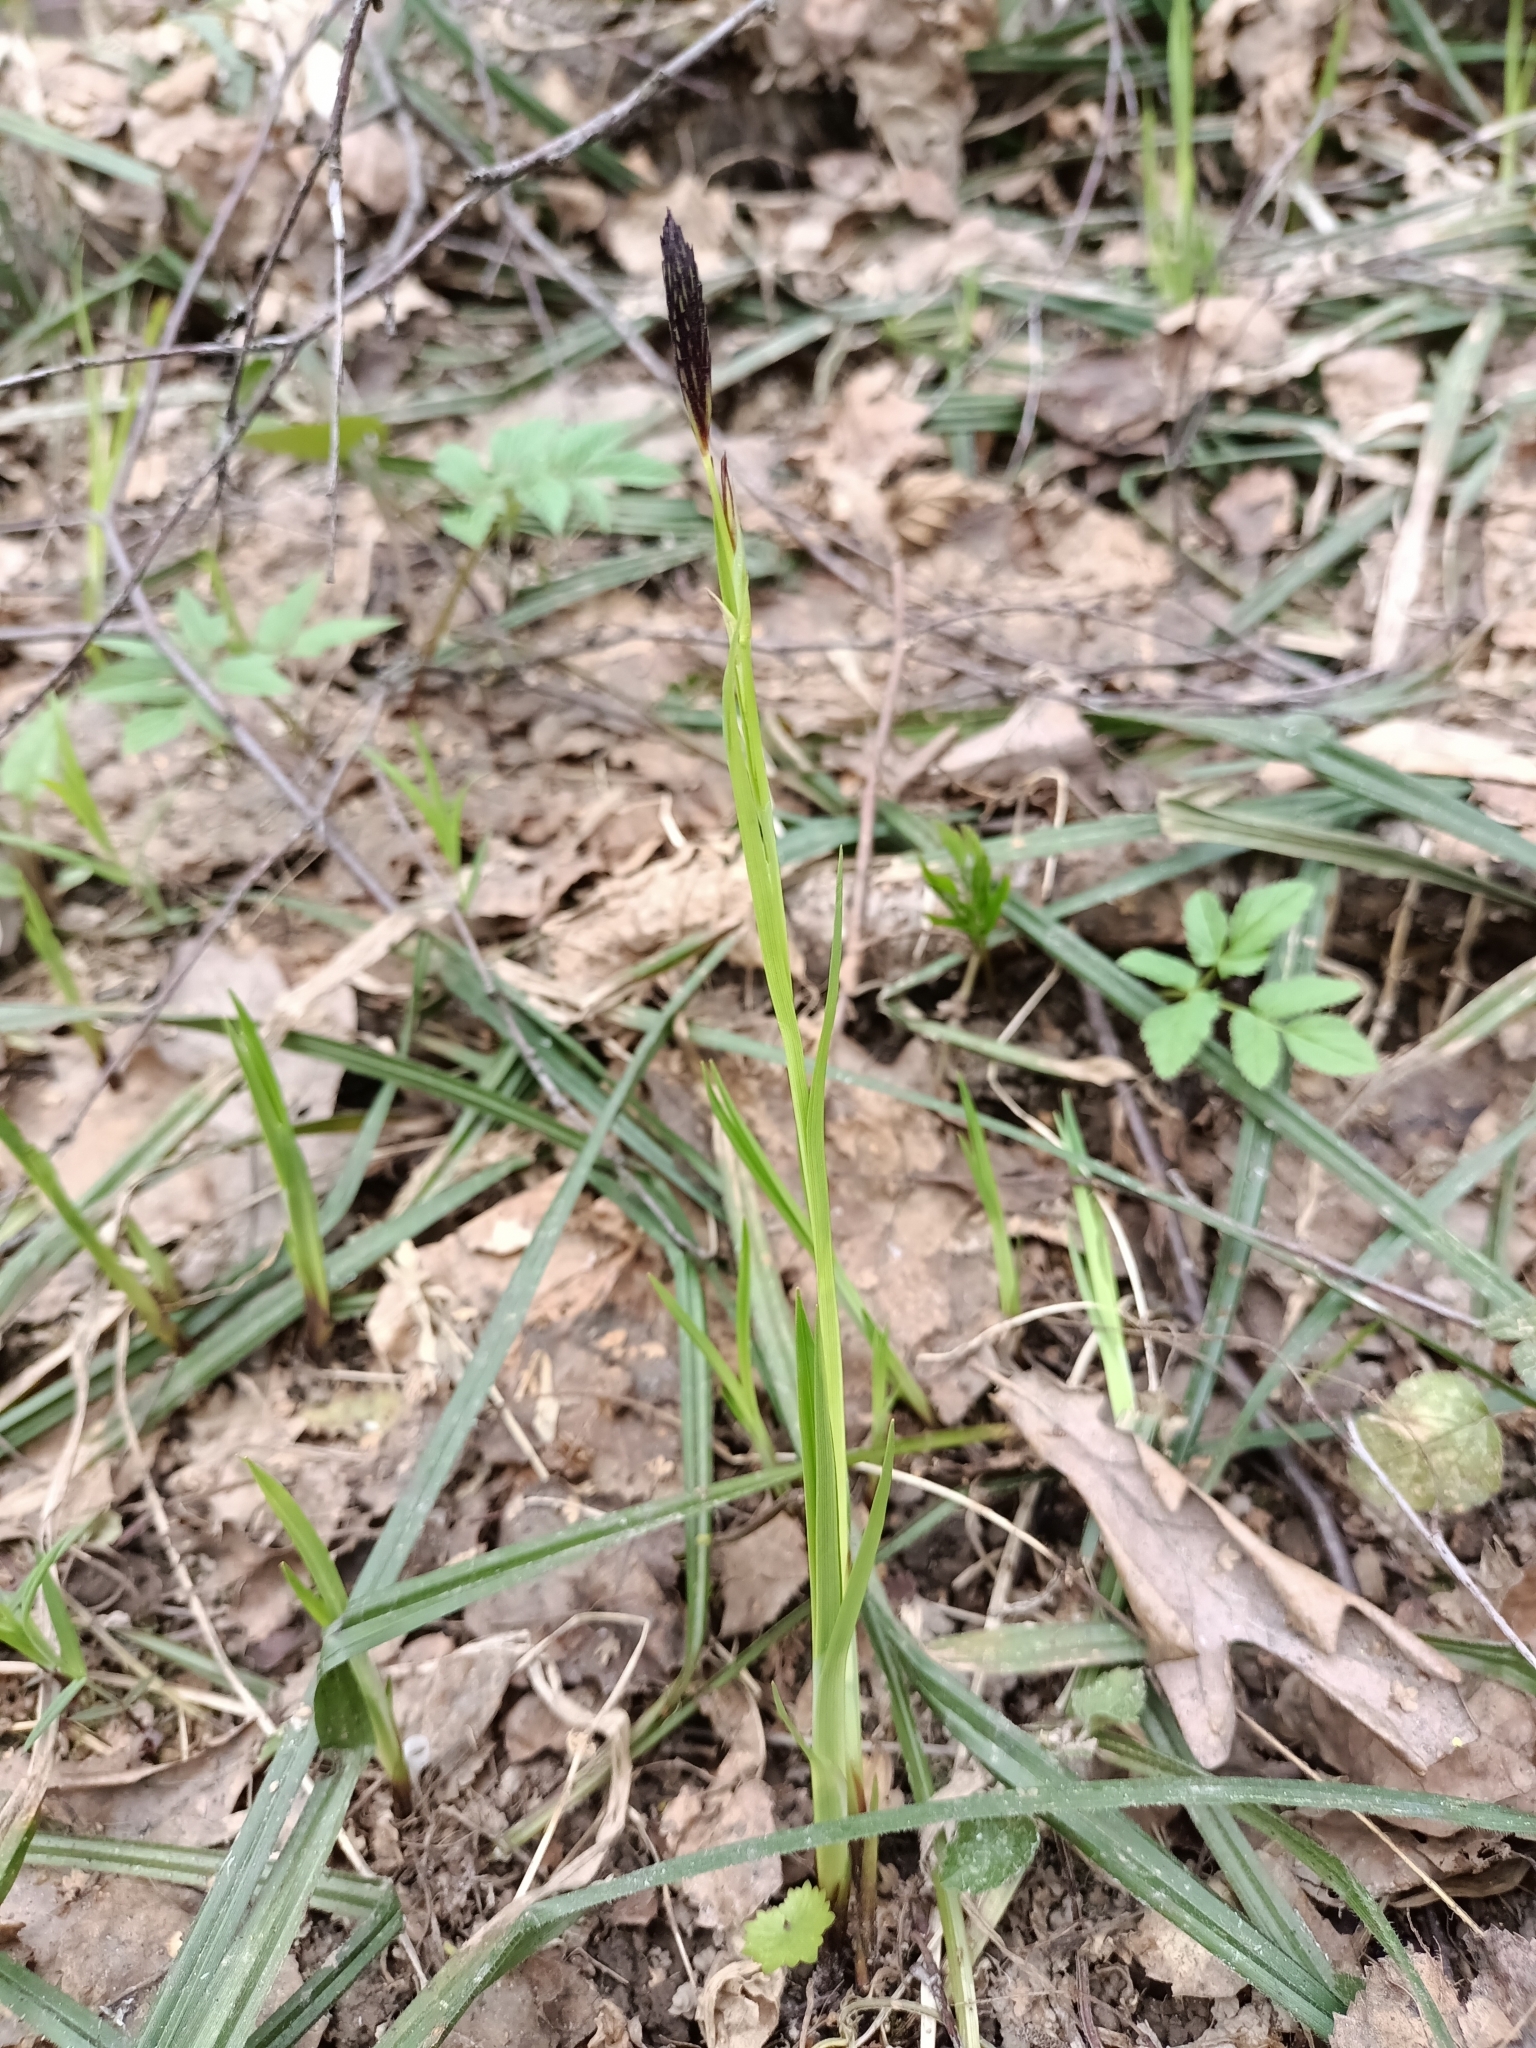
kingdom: Plantae
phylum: Tracheophyta
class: Liliopsida
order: Poales
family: Cyperaceae
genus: Carex
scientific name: Carex pilosa
